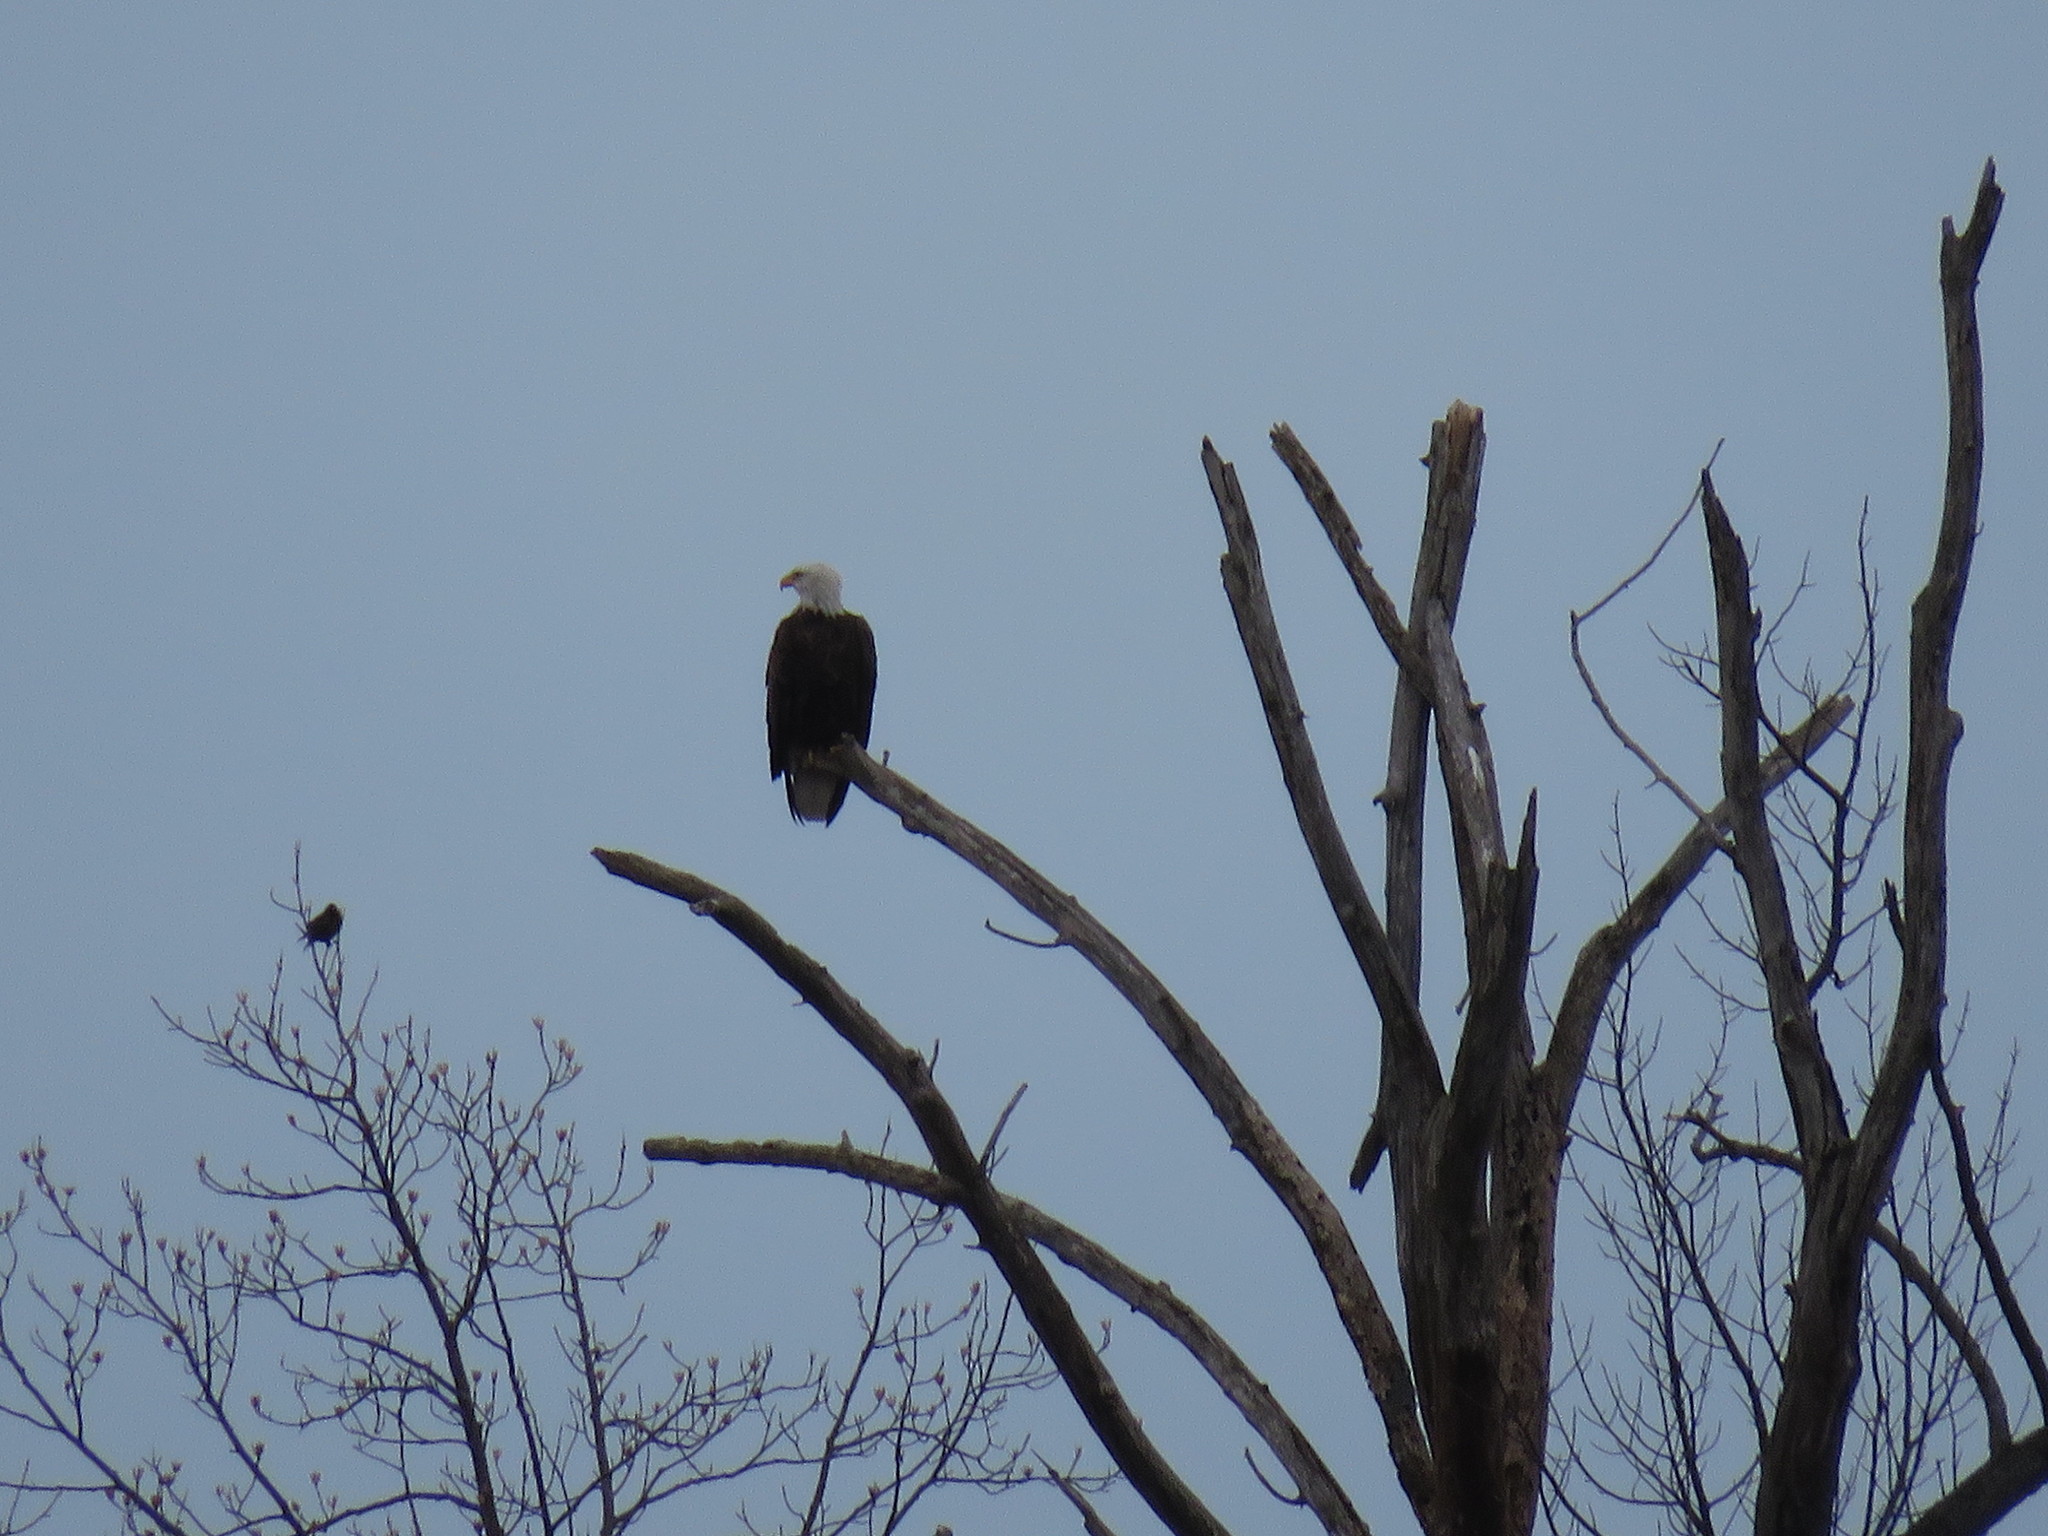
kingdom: Animalia
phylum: Chordata
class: Aves
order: Accipitriformes
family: Accipitridae
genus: Haliaeetus
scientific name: Haliaeetus leucocephalus
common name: Bald eagle
